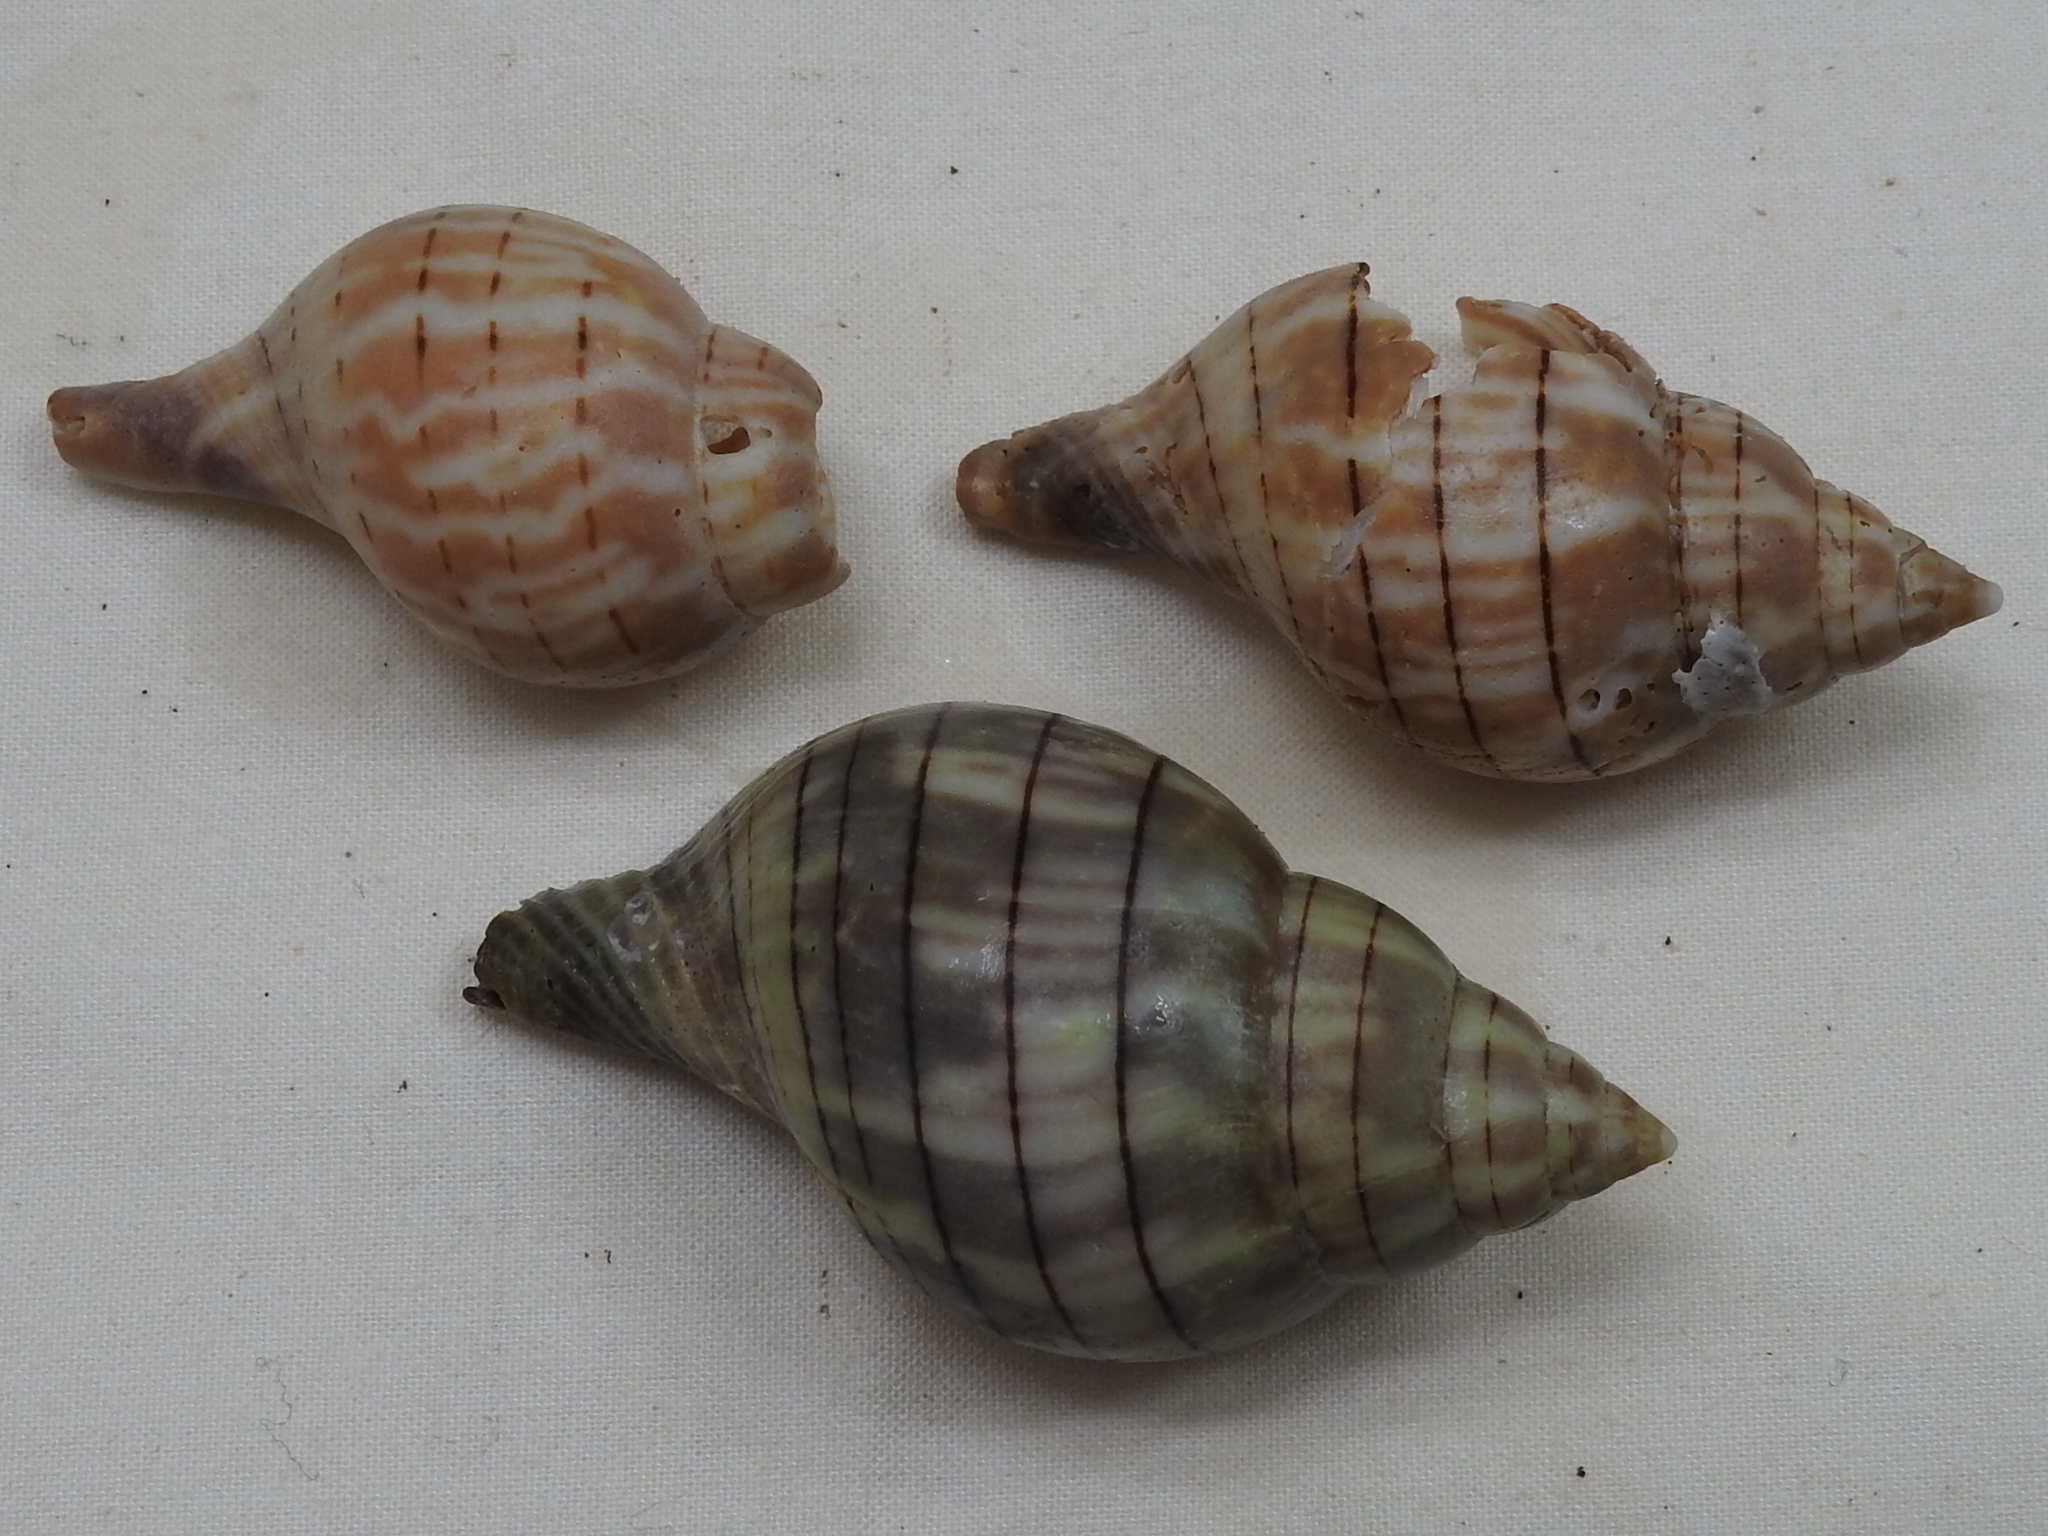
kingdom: Animalia
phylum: Mollusca
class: Gastropoda
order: Neogastropoda
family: Fasciolariidae
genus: Cinctura
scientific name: Cinctura hunteria
